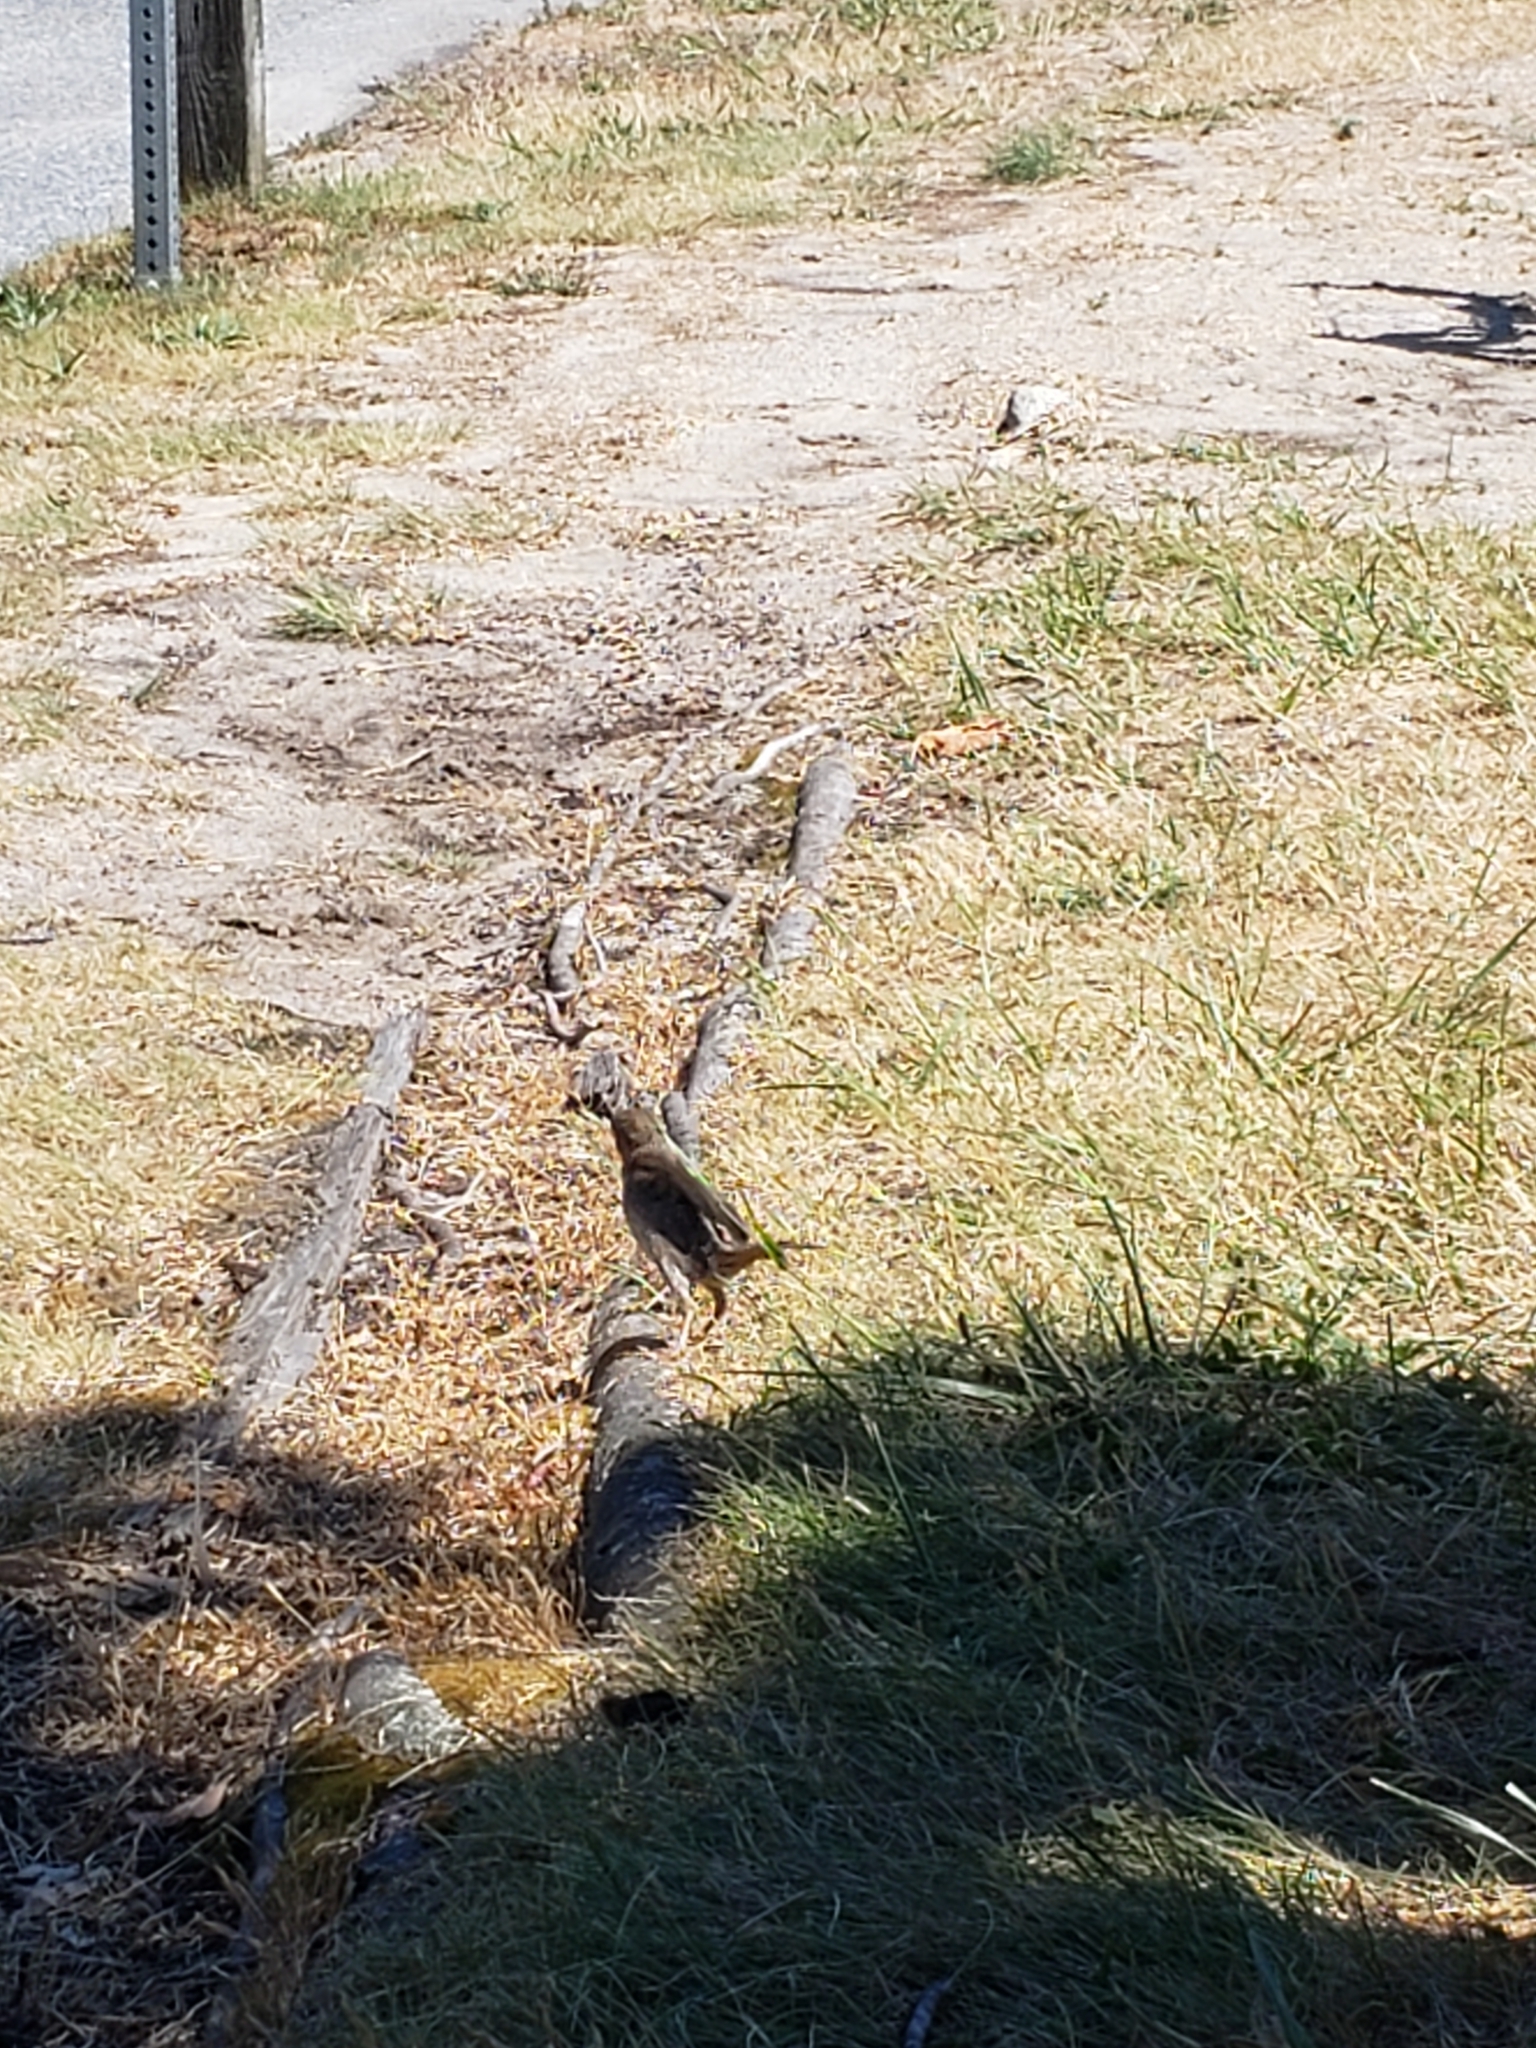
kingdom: Animalia
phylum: Chordata
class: Aves
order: Passeriformes
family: Passeridae
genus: Passer
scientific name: Passer domesticus
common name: House sparrow
